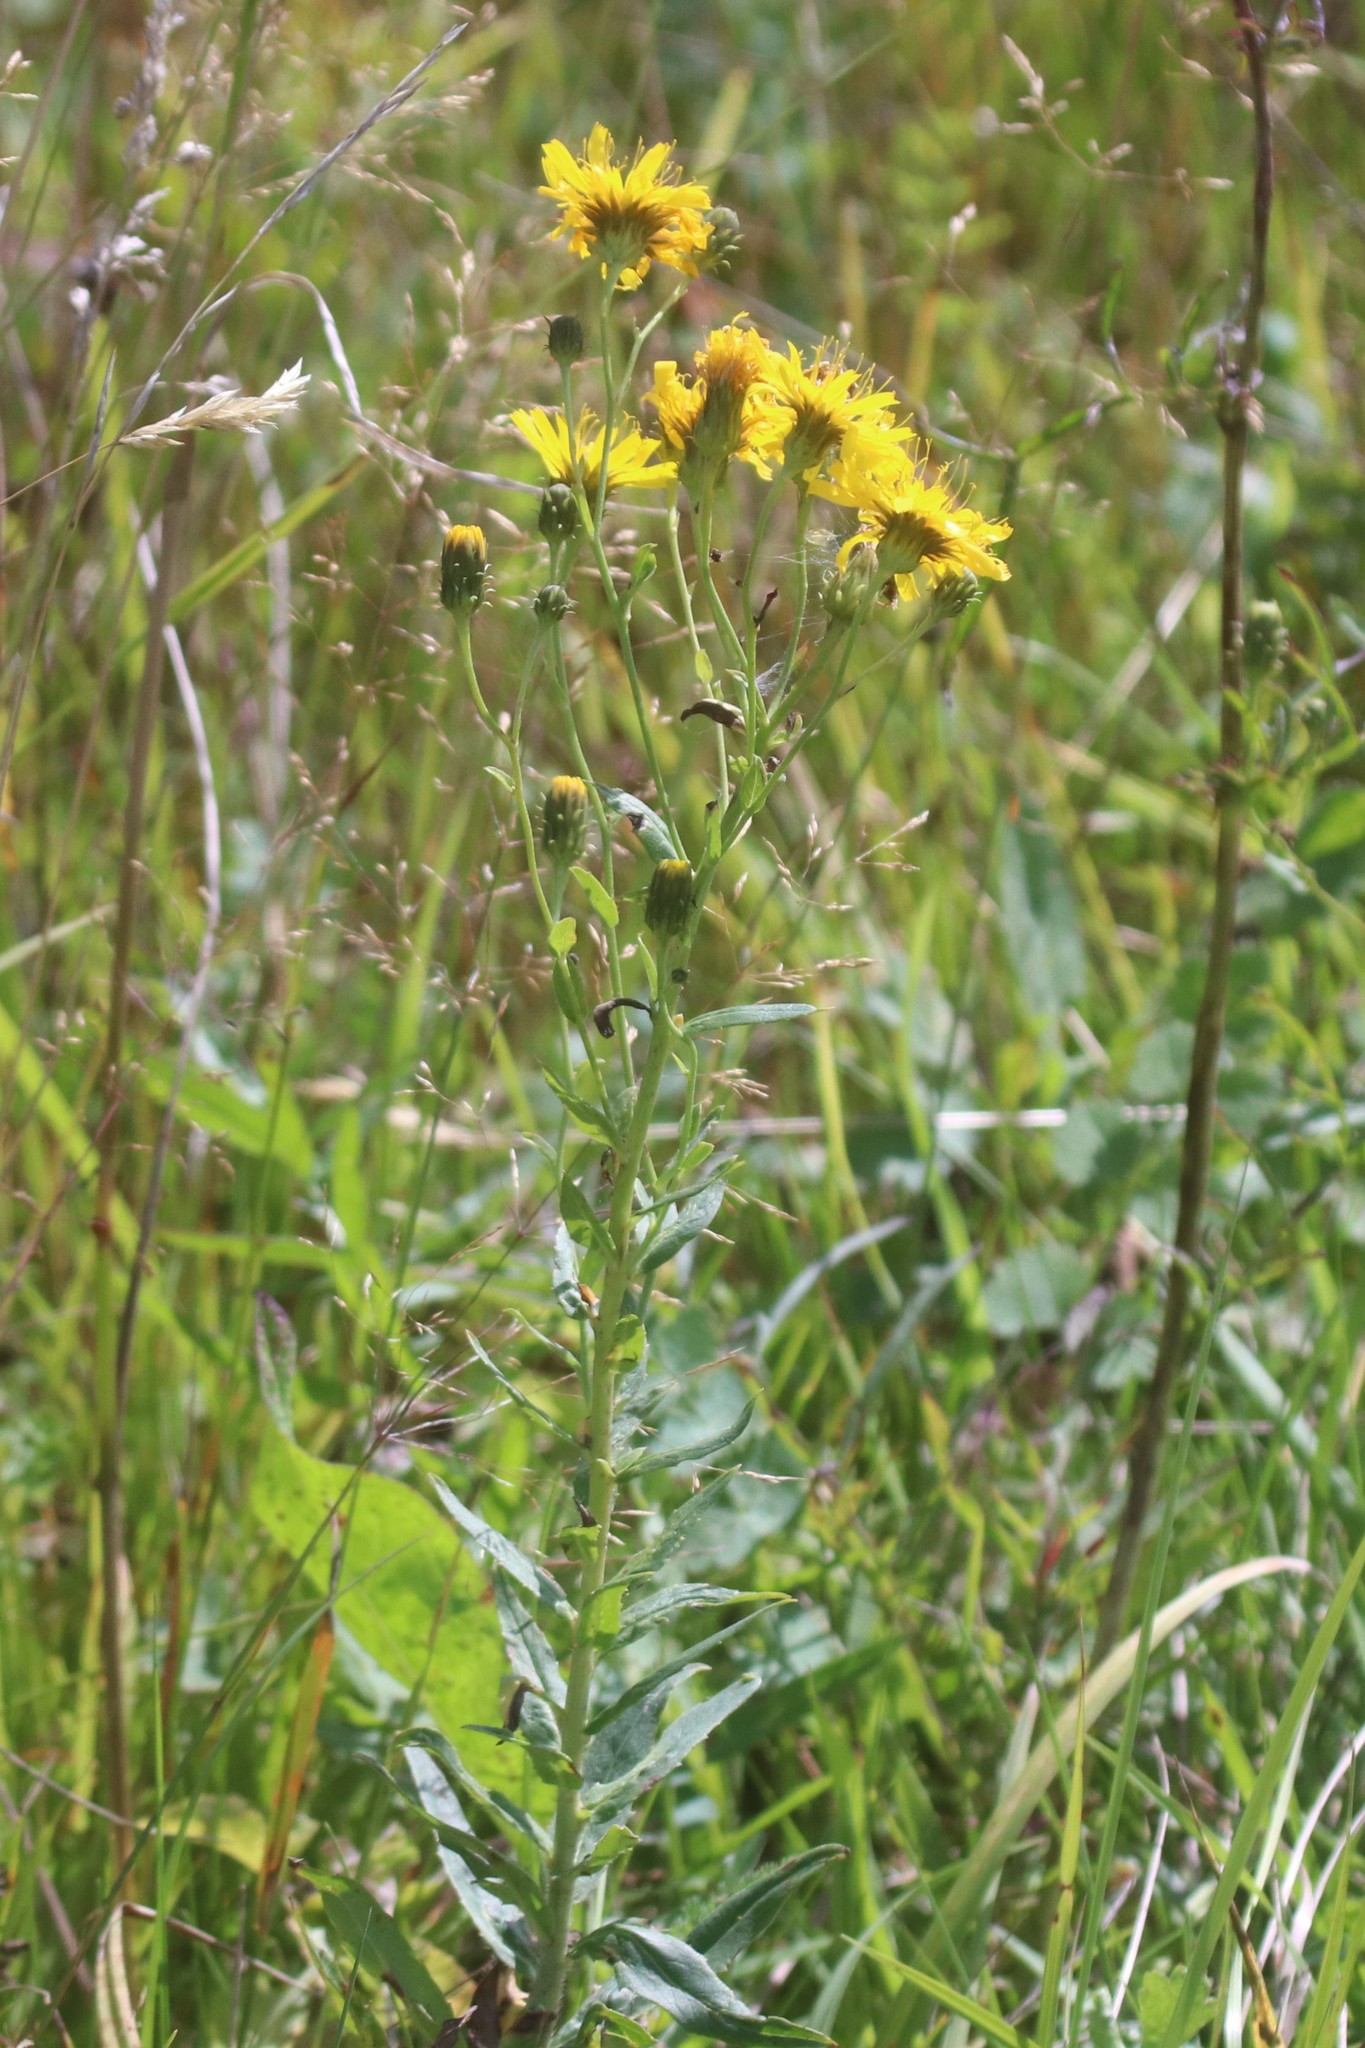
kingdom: Plantae
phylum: Tracheophyta
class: Magnoliopsida
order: Asterales
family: Asteraceae
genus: Hieracium
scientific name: Hieracium umbellatum
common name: Northern hawkweed
